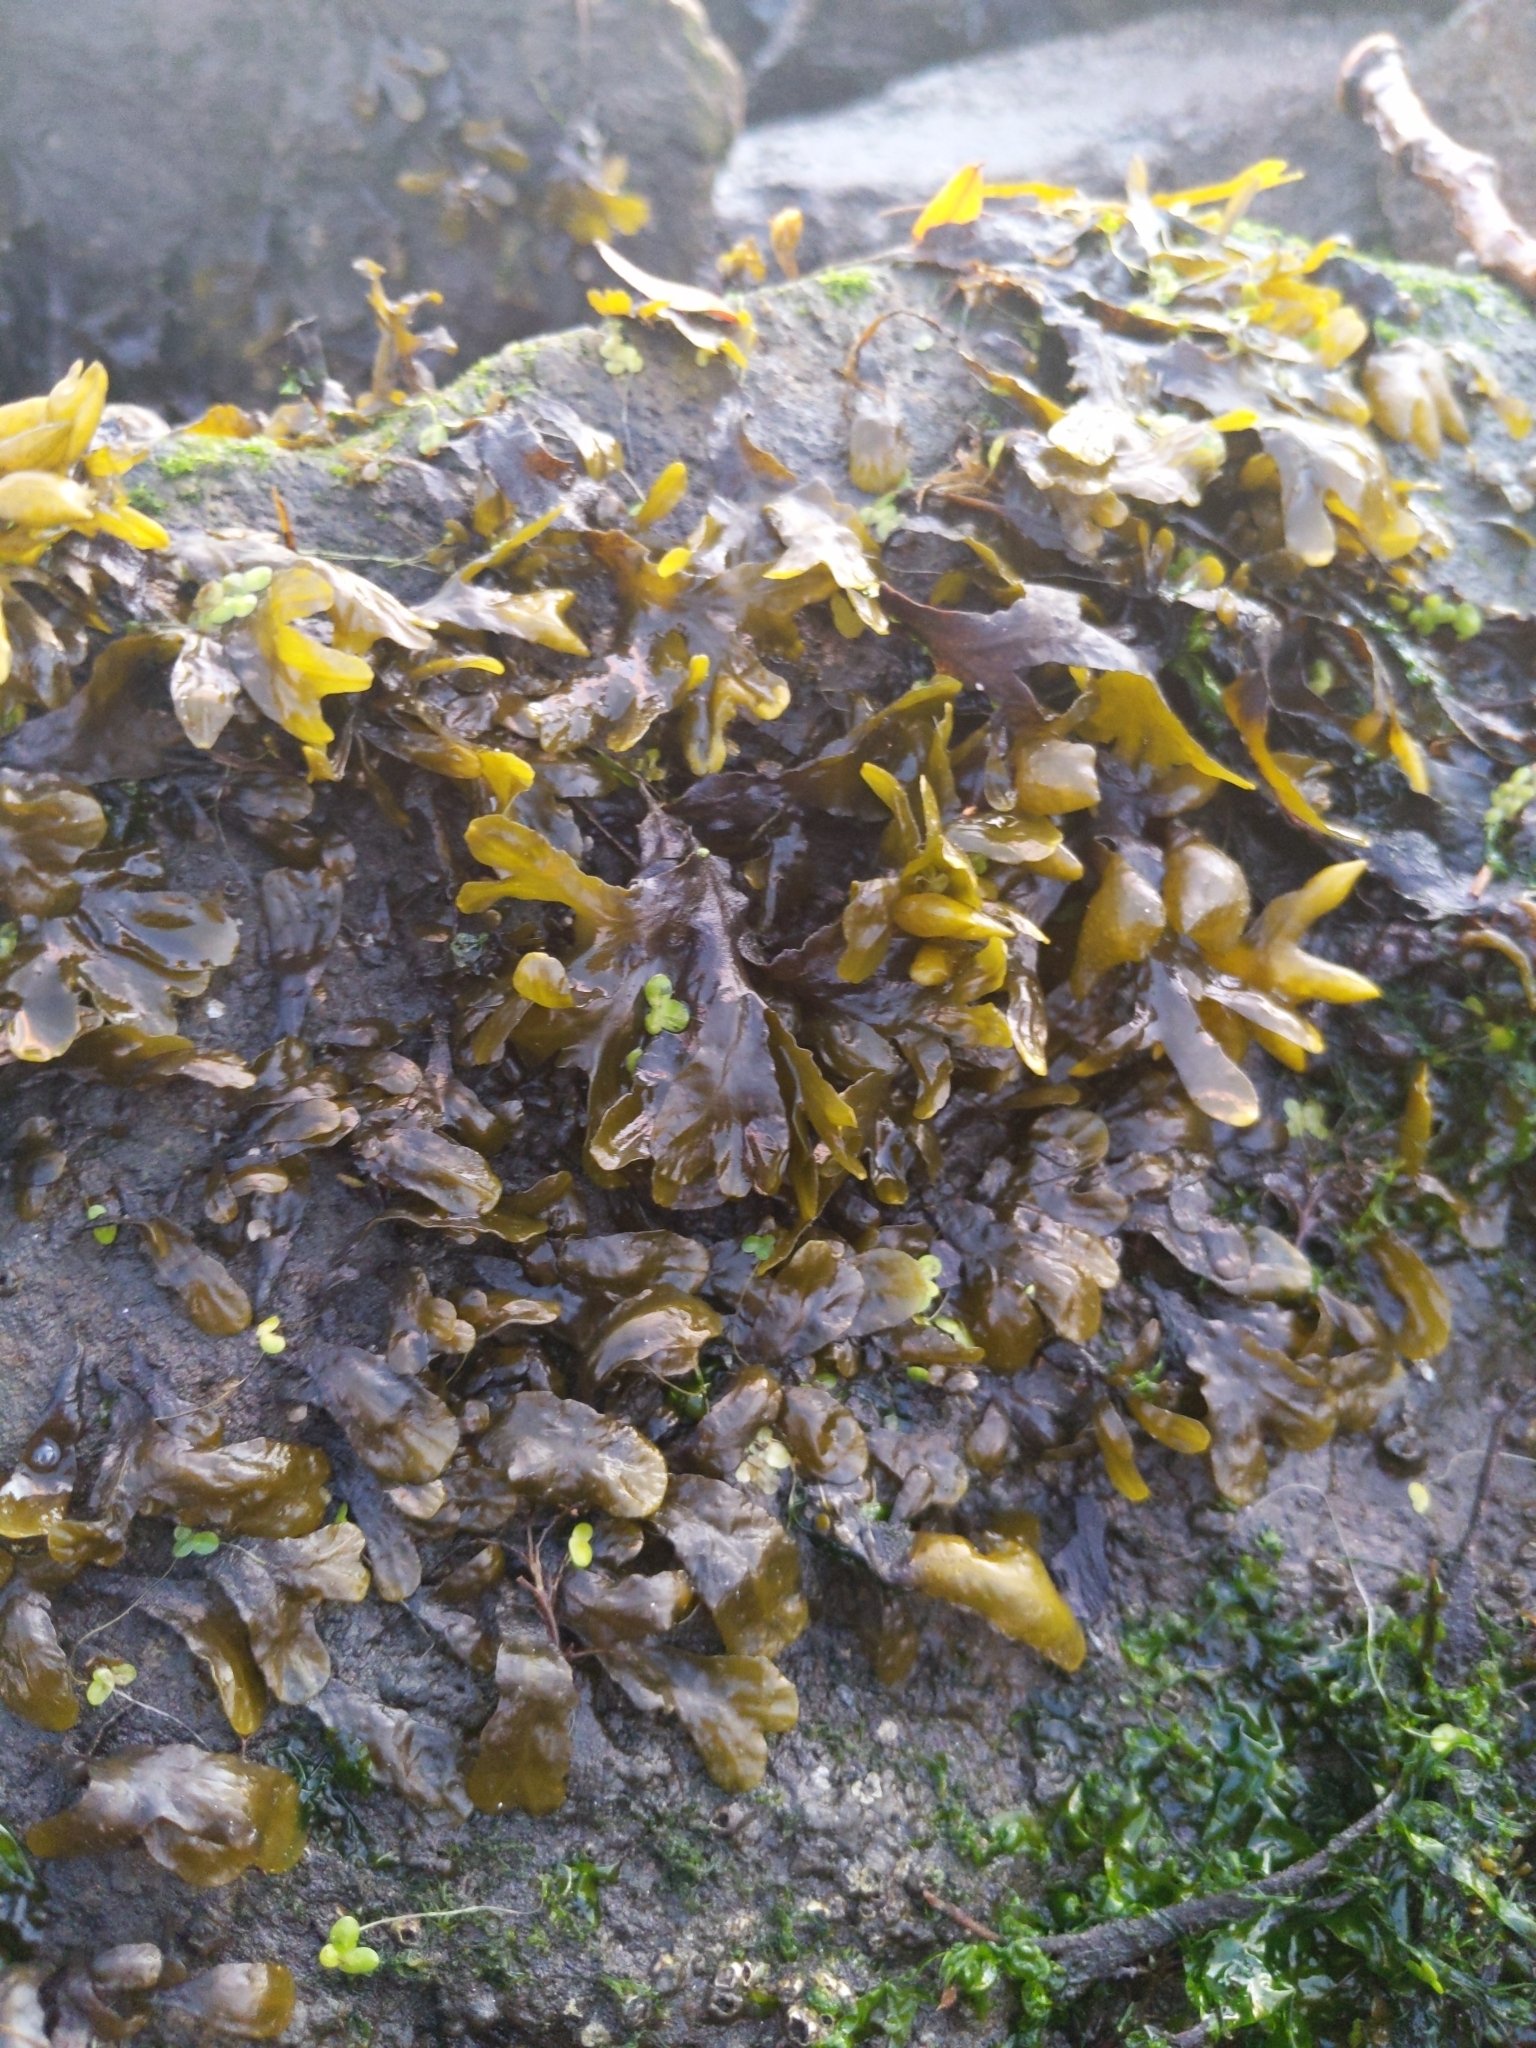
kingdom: Chromista
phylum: Ochrophyta
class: Phaeophyceae
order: Fucales
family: Fucaceae
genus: Fucus
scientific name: Fucus distichus
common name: Rockweed
